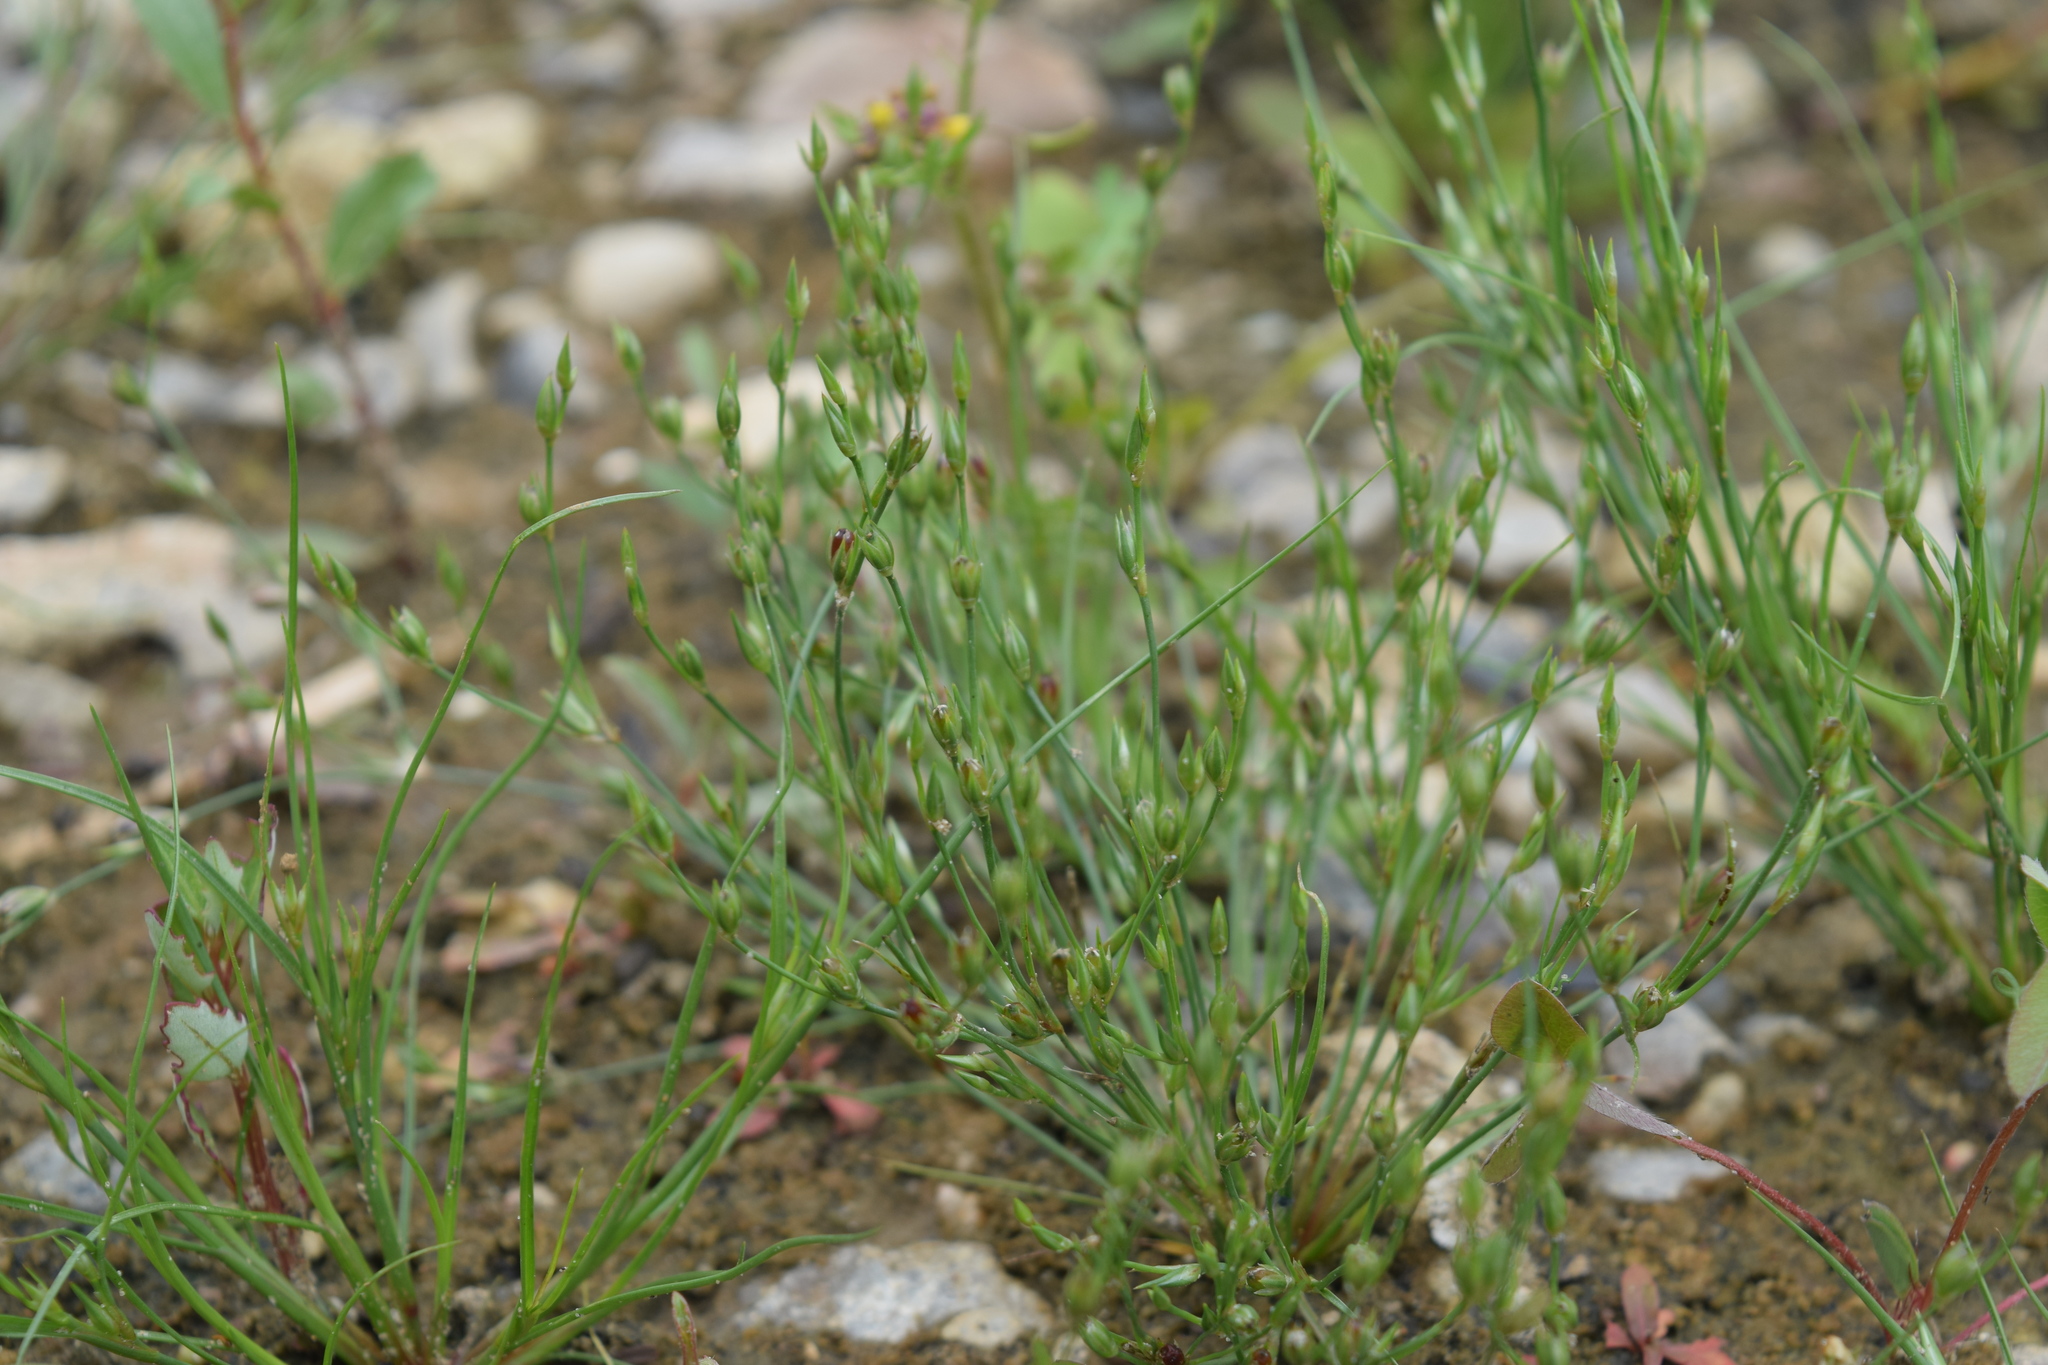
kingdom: Plantae
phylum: Tracheophyta
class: Liliopsida
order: Poales
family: Juncaceae
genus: Juncus
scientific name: Juncus bufonius
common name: Toad rush
